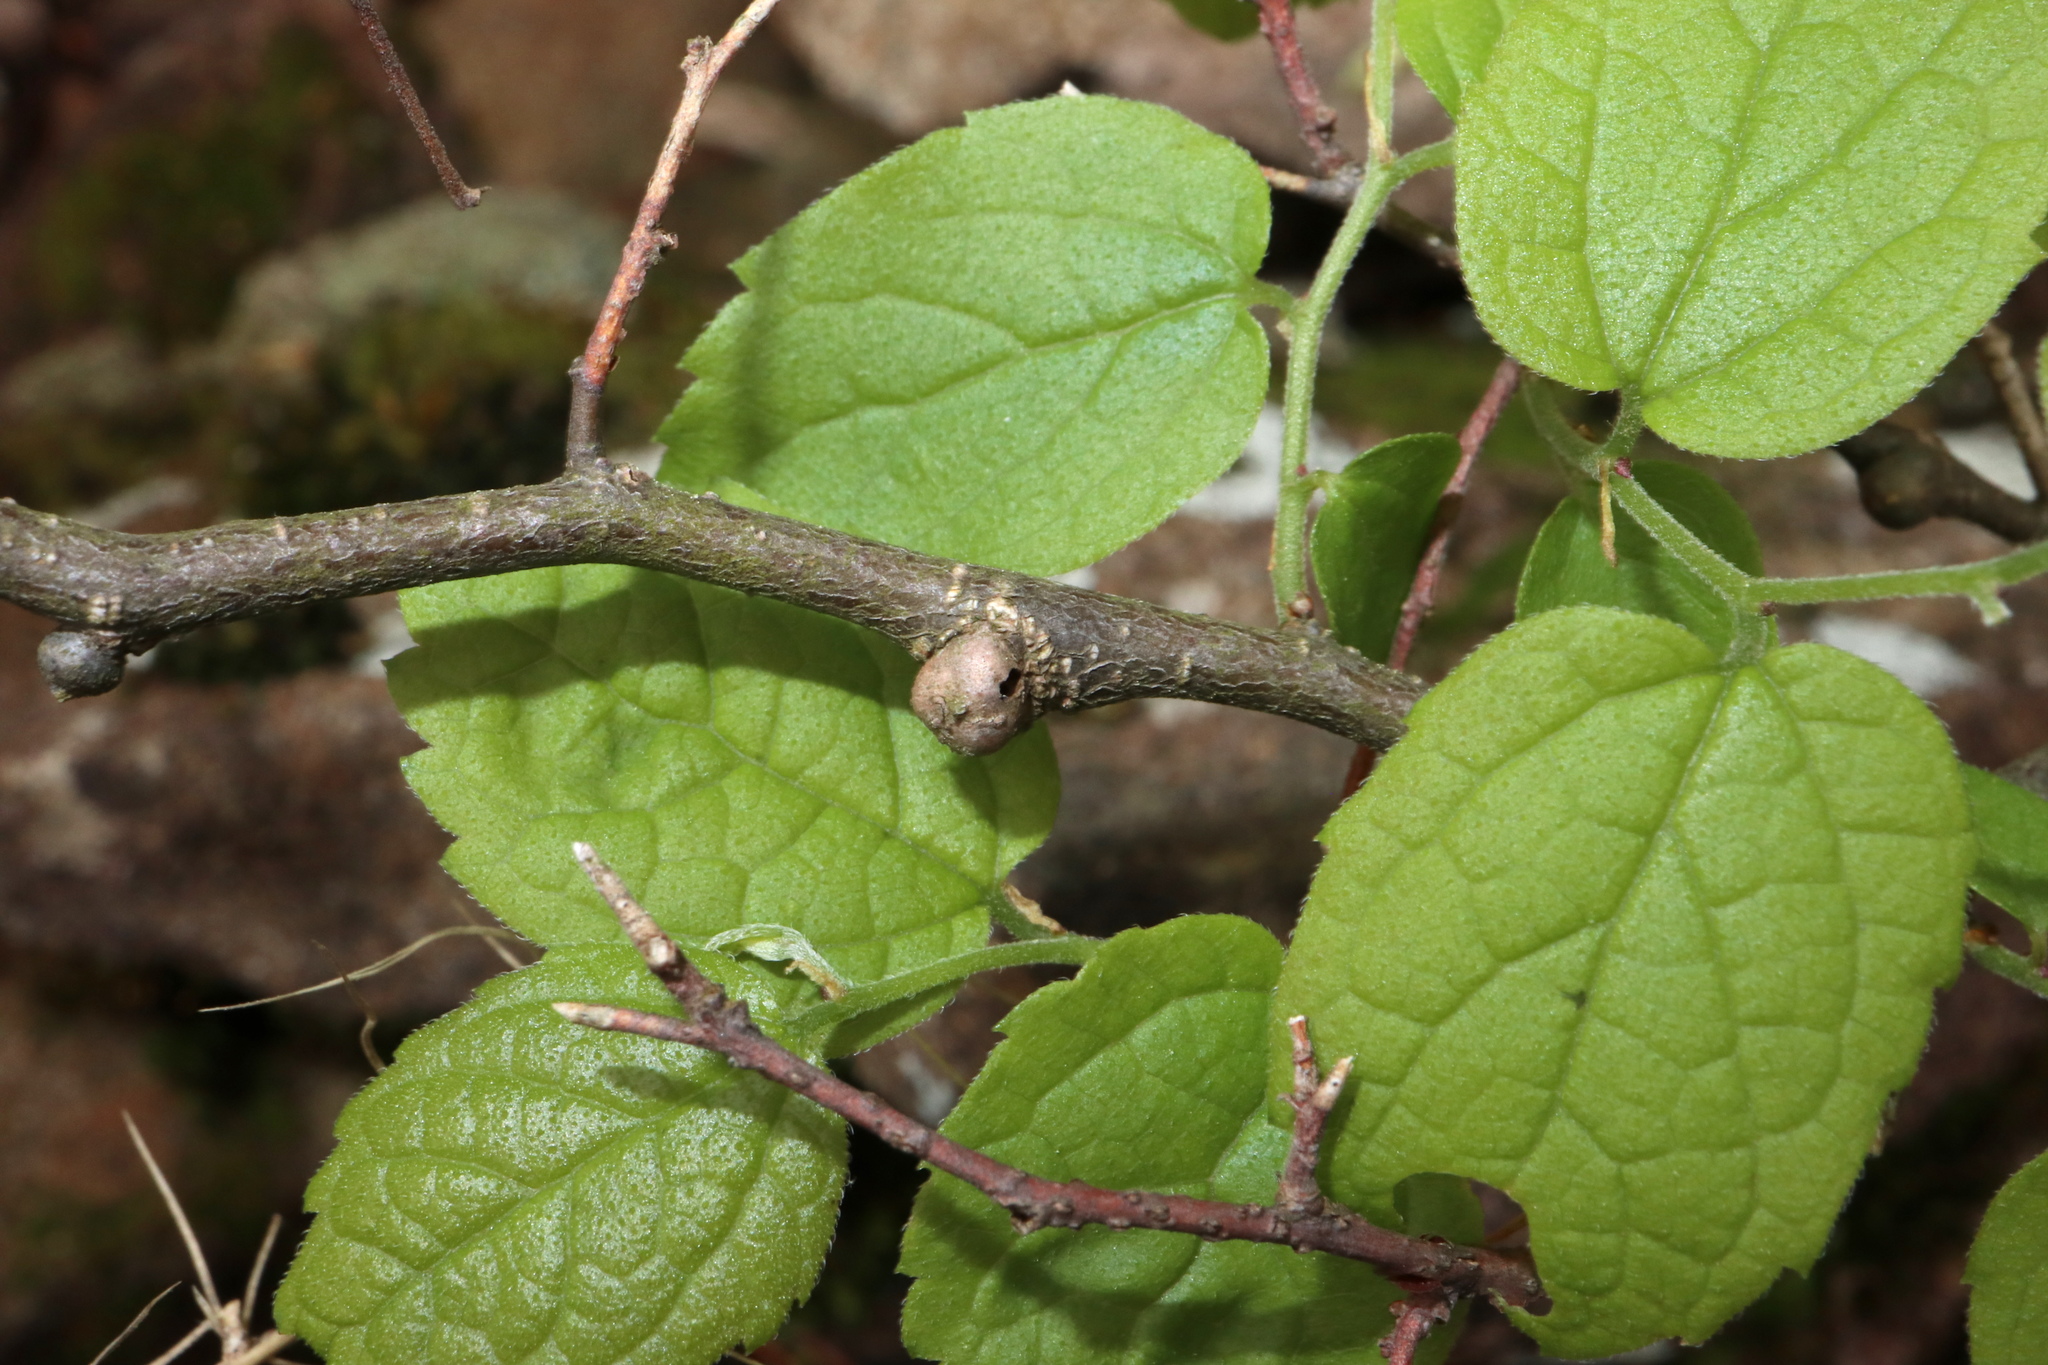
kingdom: Animalia
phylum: Arthropoda
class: Insecta
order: Hemiptera
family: Aphalaridae
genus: Pachypsylla
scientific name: Pachypsylla celtidisgemma
